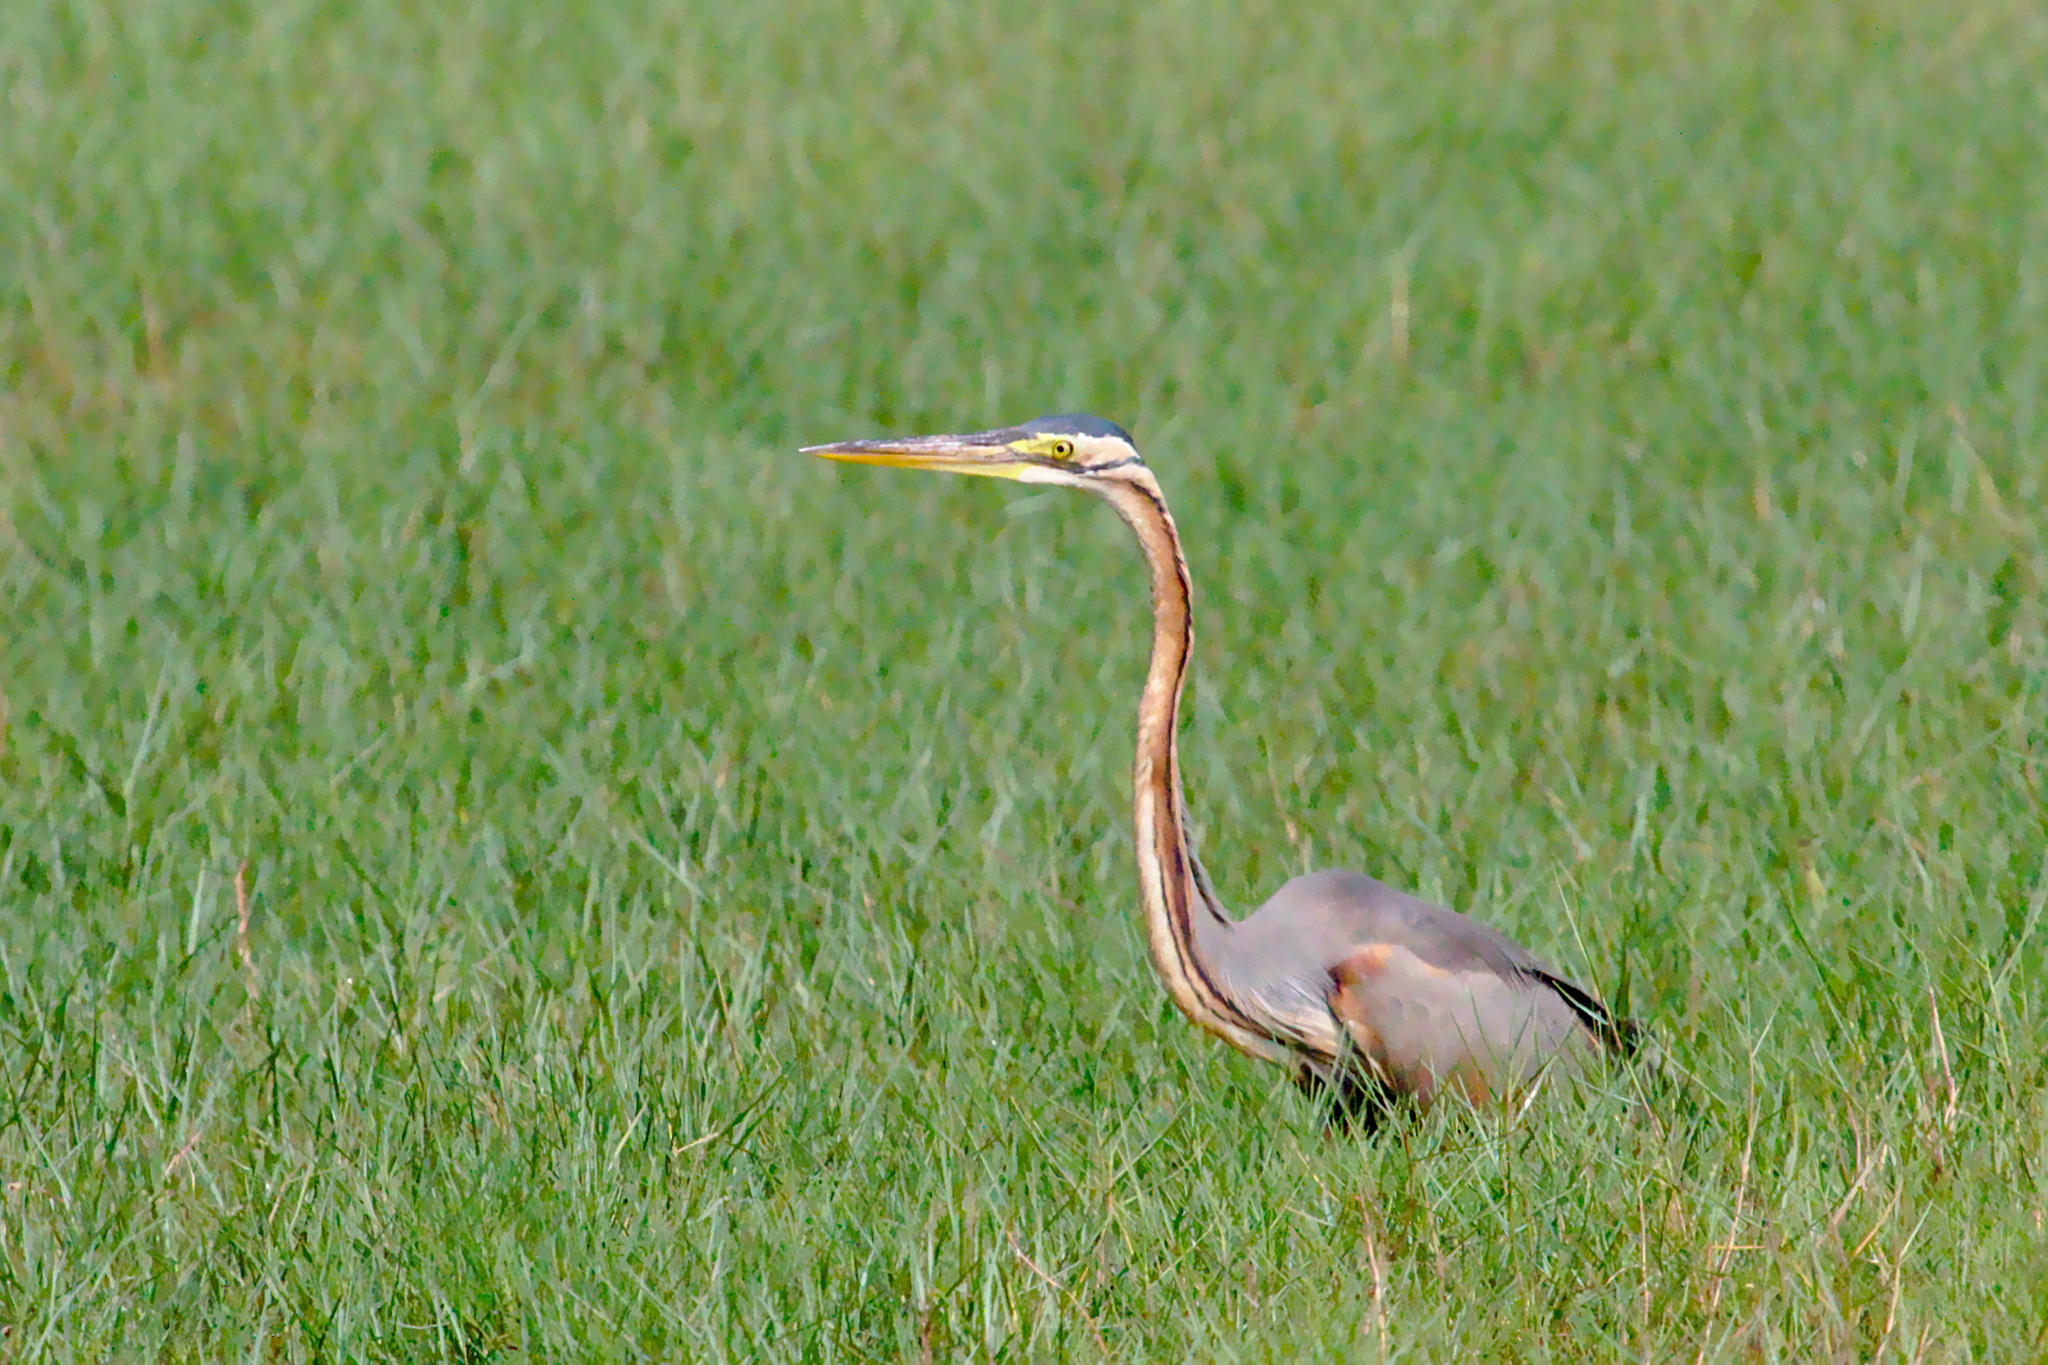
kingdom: Animalia
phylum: Chordata
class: Aves
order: Pelecaniformes
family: Ardeidae
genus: Ardea
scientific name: Ardea purpurea
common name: Purple heron
